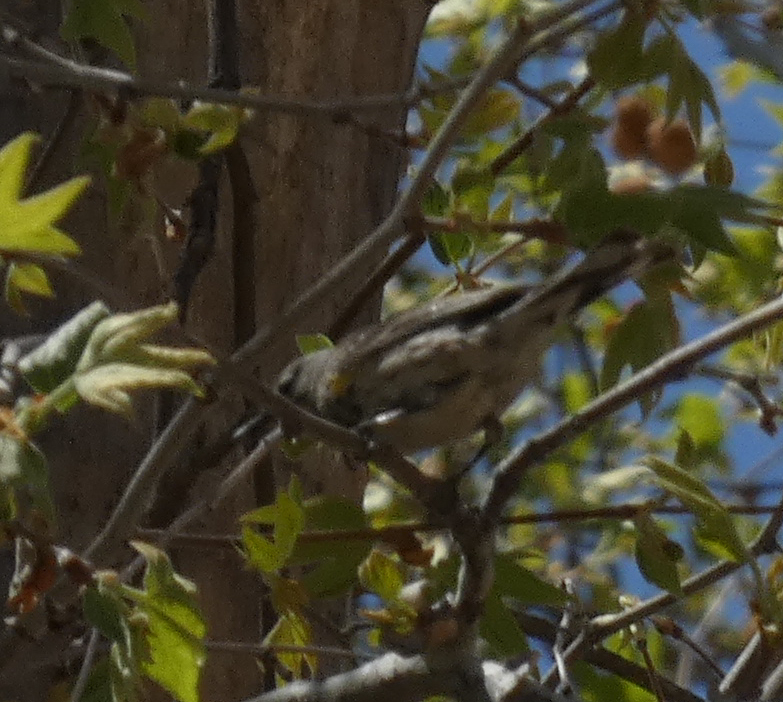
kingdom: Animalia
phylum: Chordata
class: Aves
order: Passeriformes
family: Parulidae
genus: Setophaga
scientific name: Setophaga coronata
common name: Myrtle warbler
